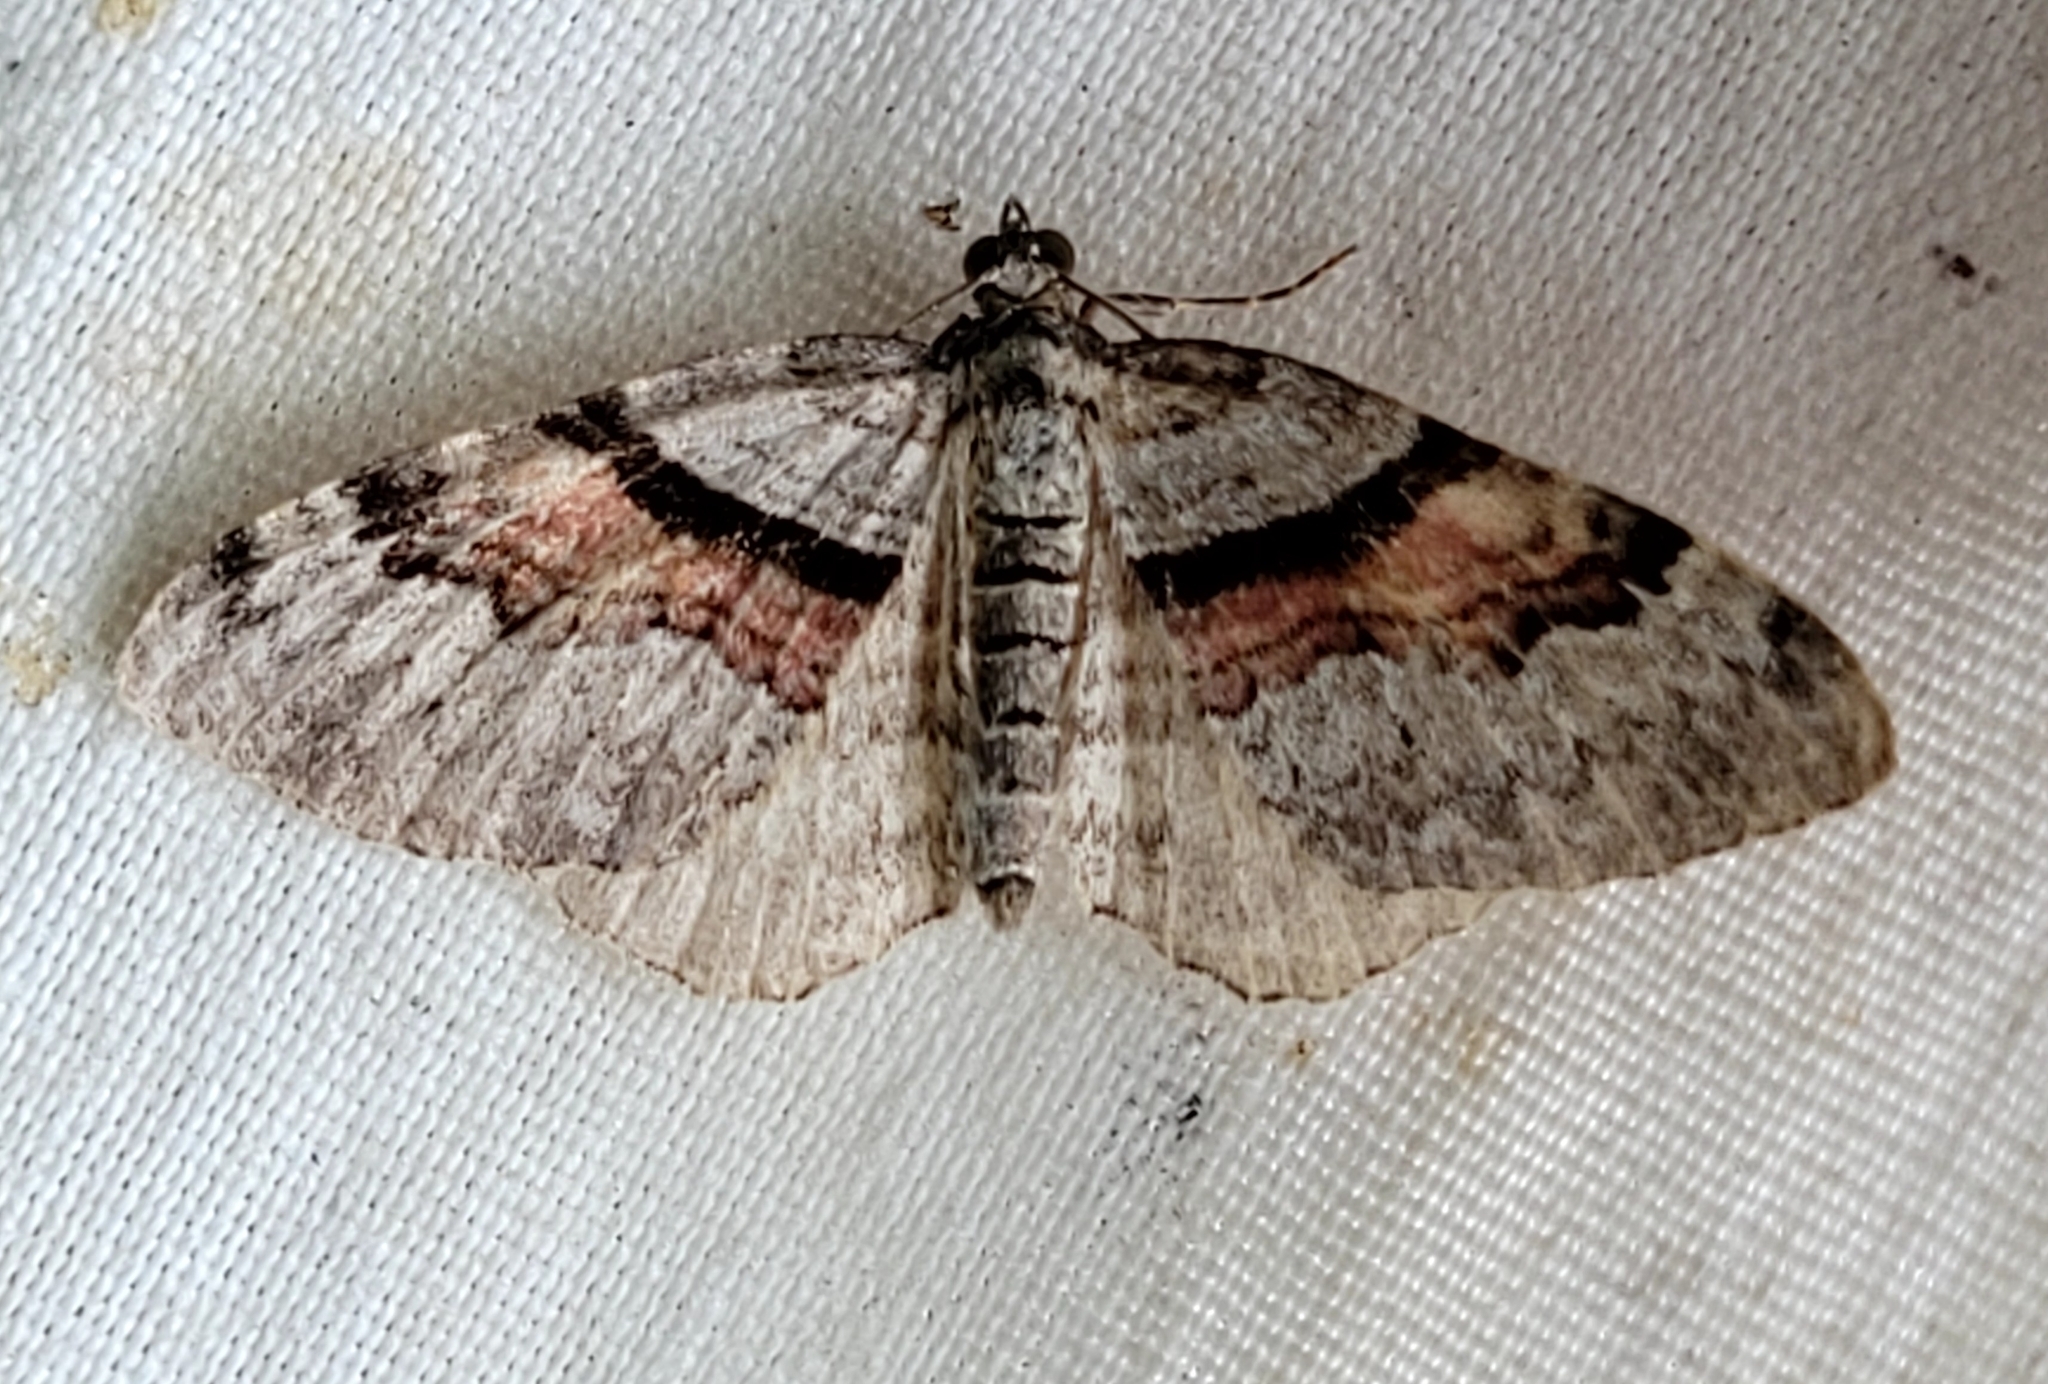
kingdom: Animalia
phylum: Arthropoda
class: Insecta
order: Lepidoptera
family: Geometridae
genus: Xanthorhoe
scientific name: Xanthorhoe packardata
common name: Packard's carpet
